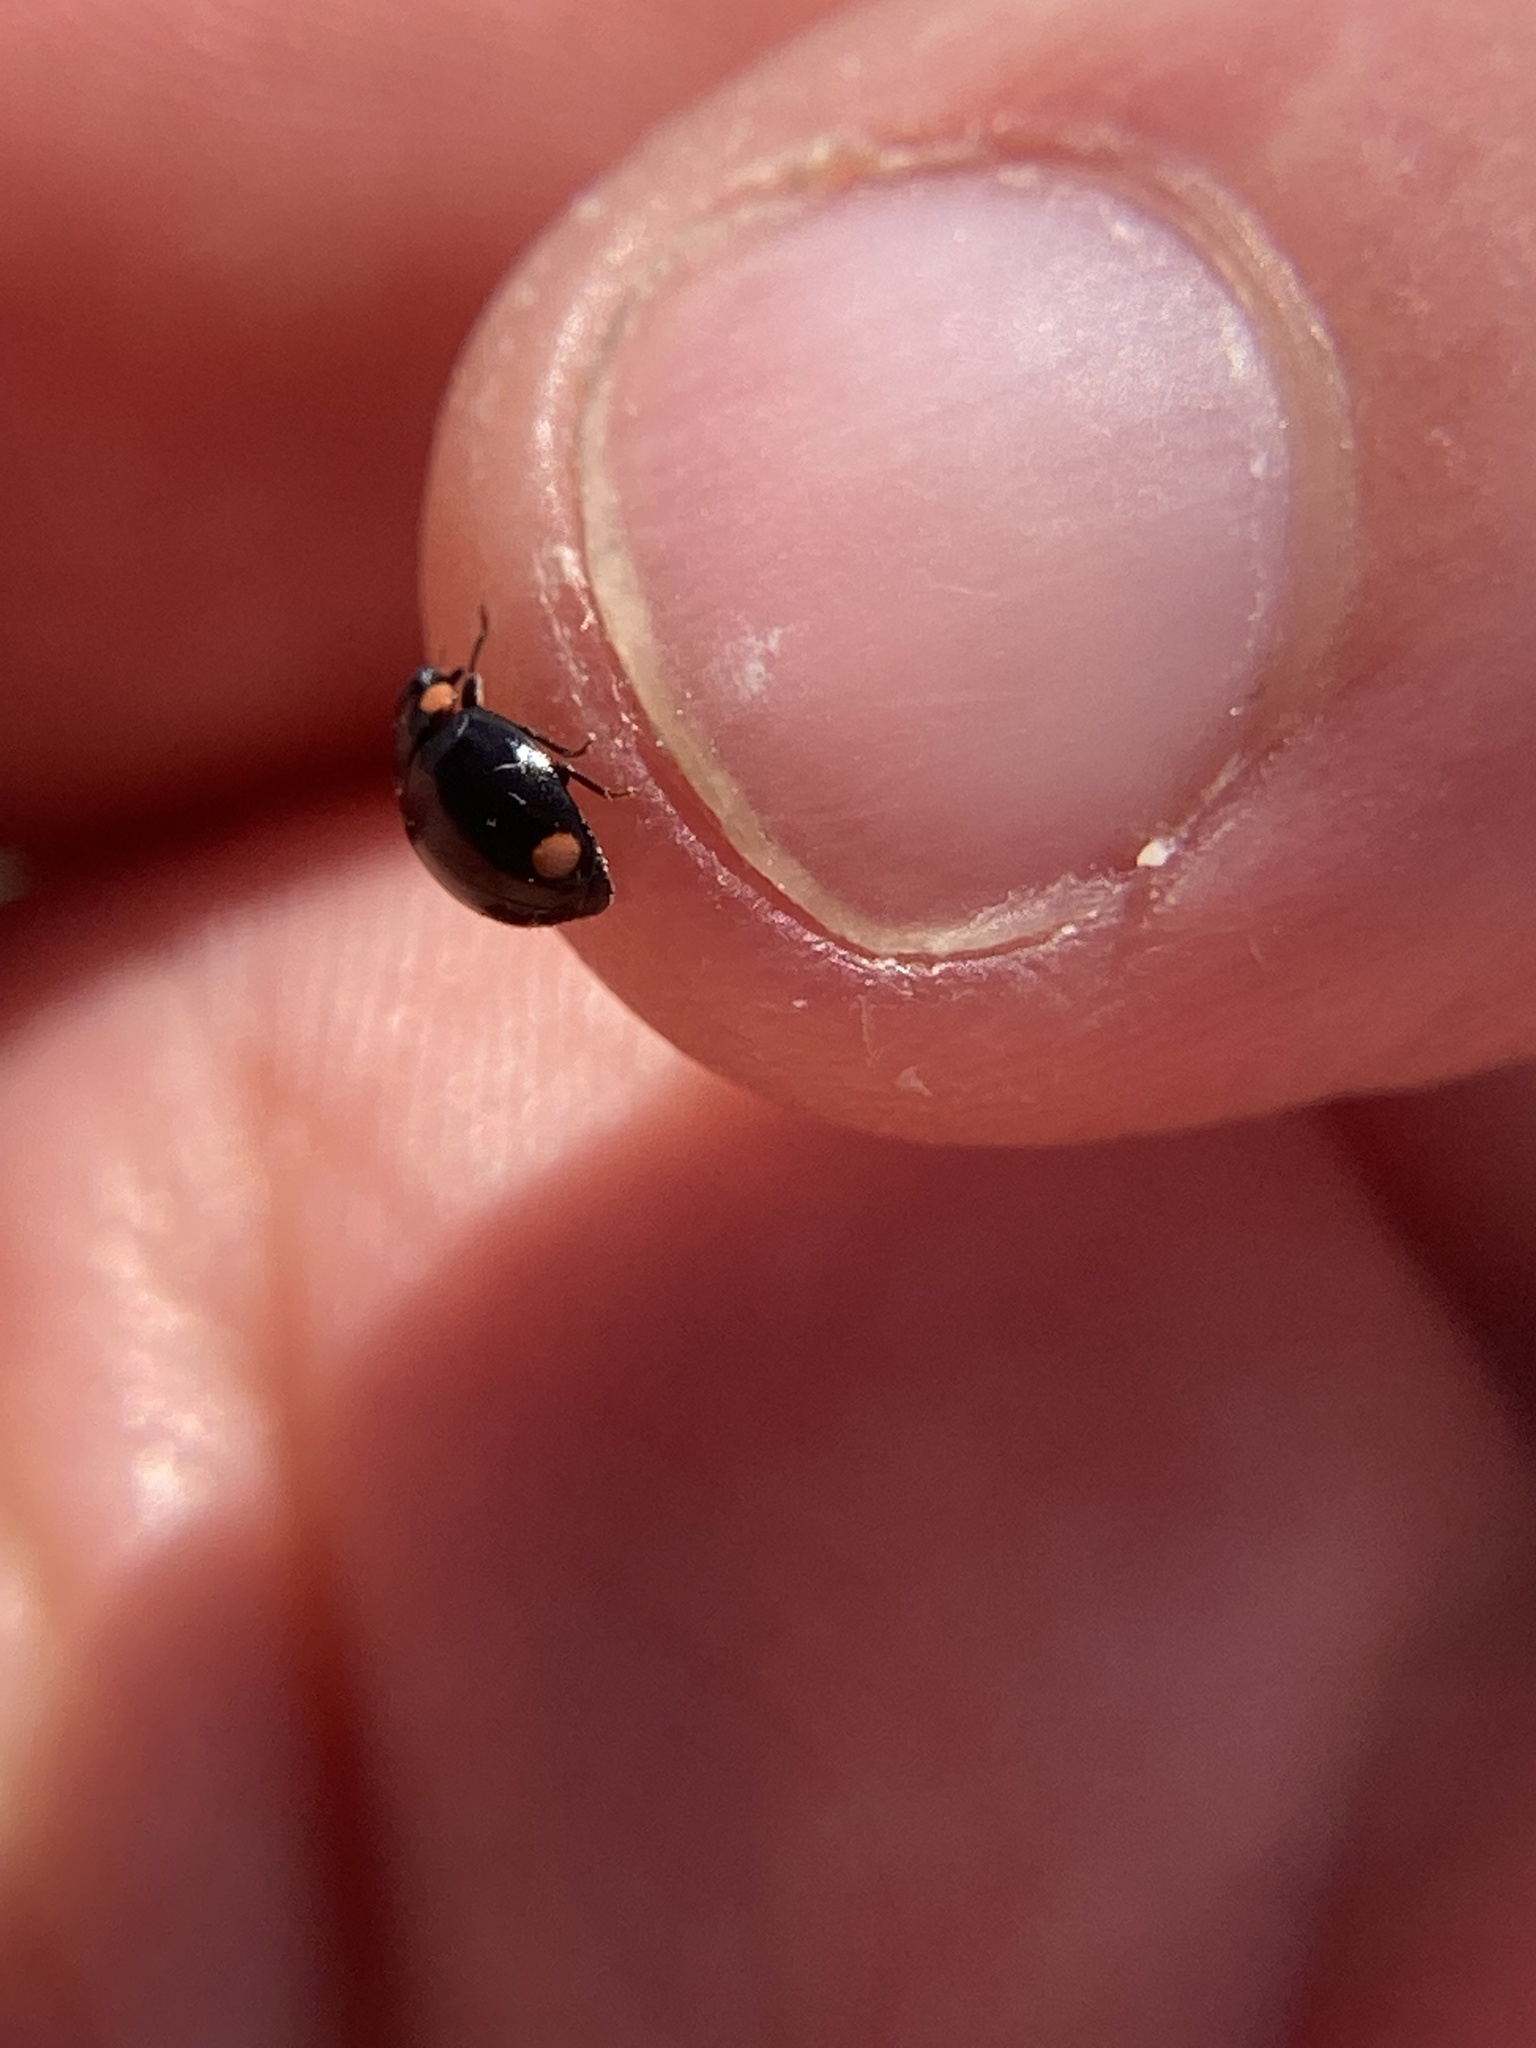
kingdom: Animalia
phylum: Arthropoda
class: Insecta
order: Coleoptera
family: Coccinellidae
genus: Hyperaspis
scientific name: Hyperaspis bigeminata
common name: Bigeminate sigil lady beetle
